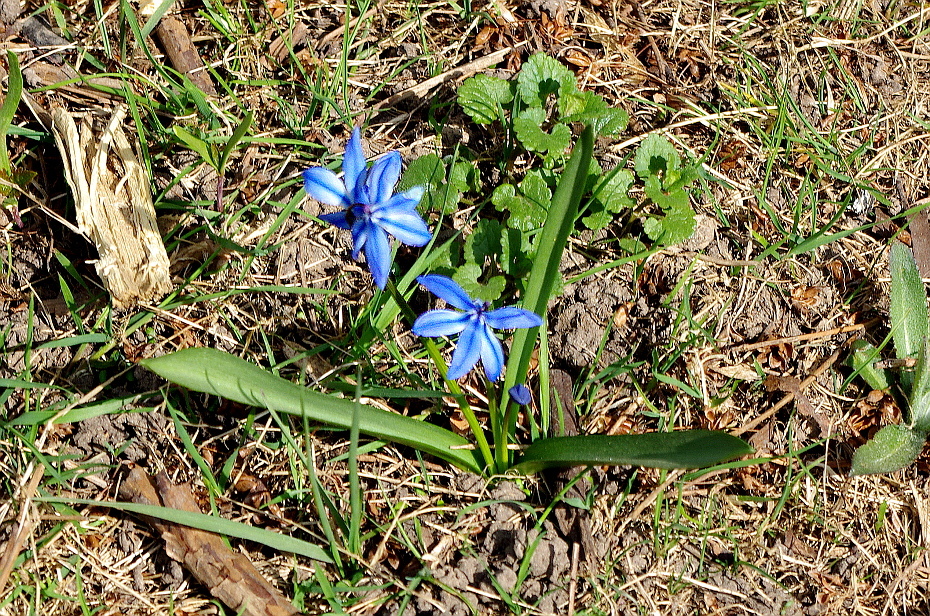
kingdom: Plantae
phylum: Tracheophyta
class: Liliopsida
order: Asparagales
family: Asparagaceae
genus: Scilla
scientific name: Scilla siberica
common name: Siberian squill
